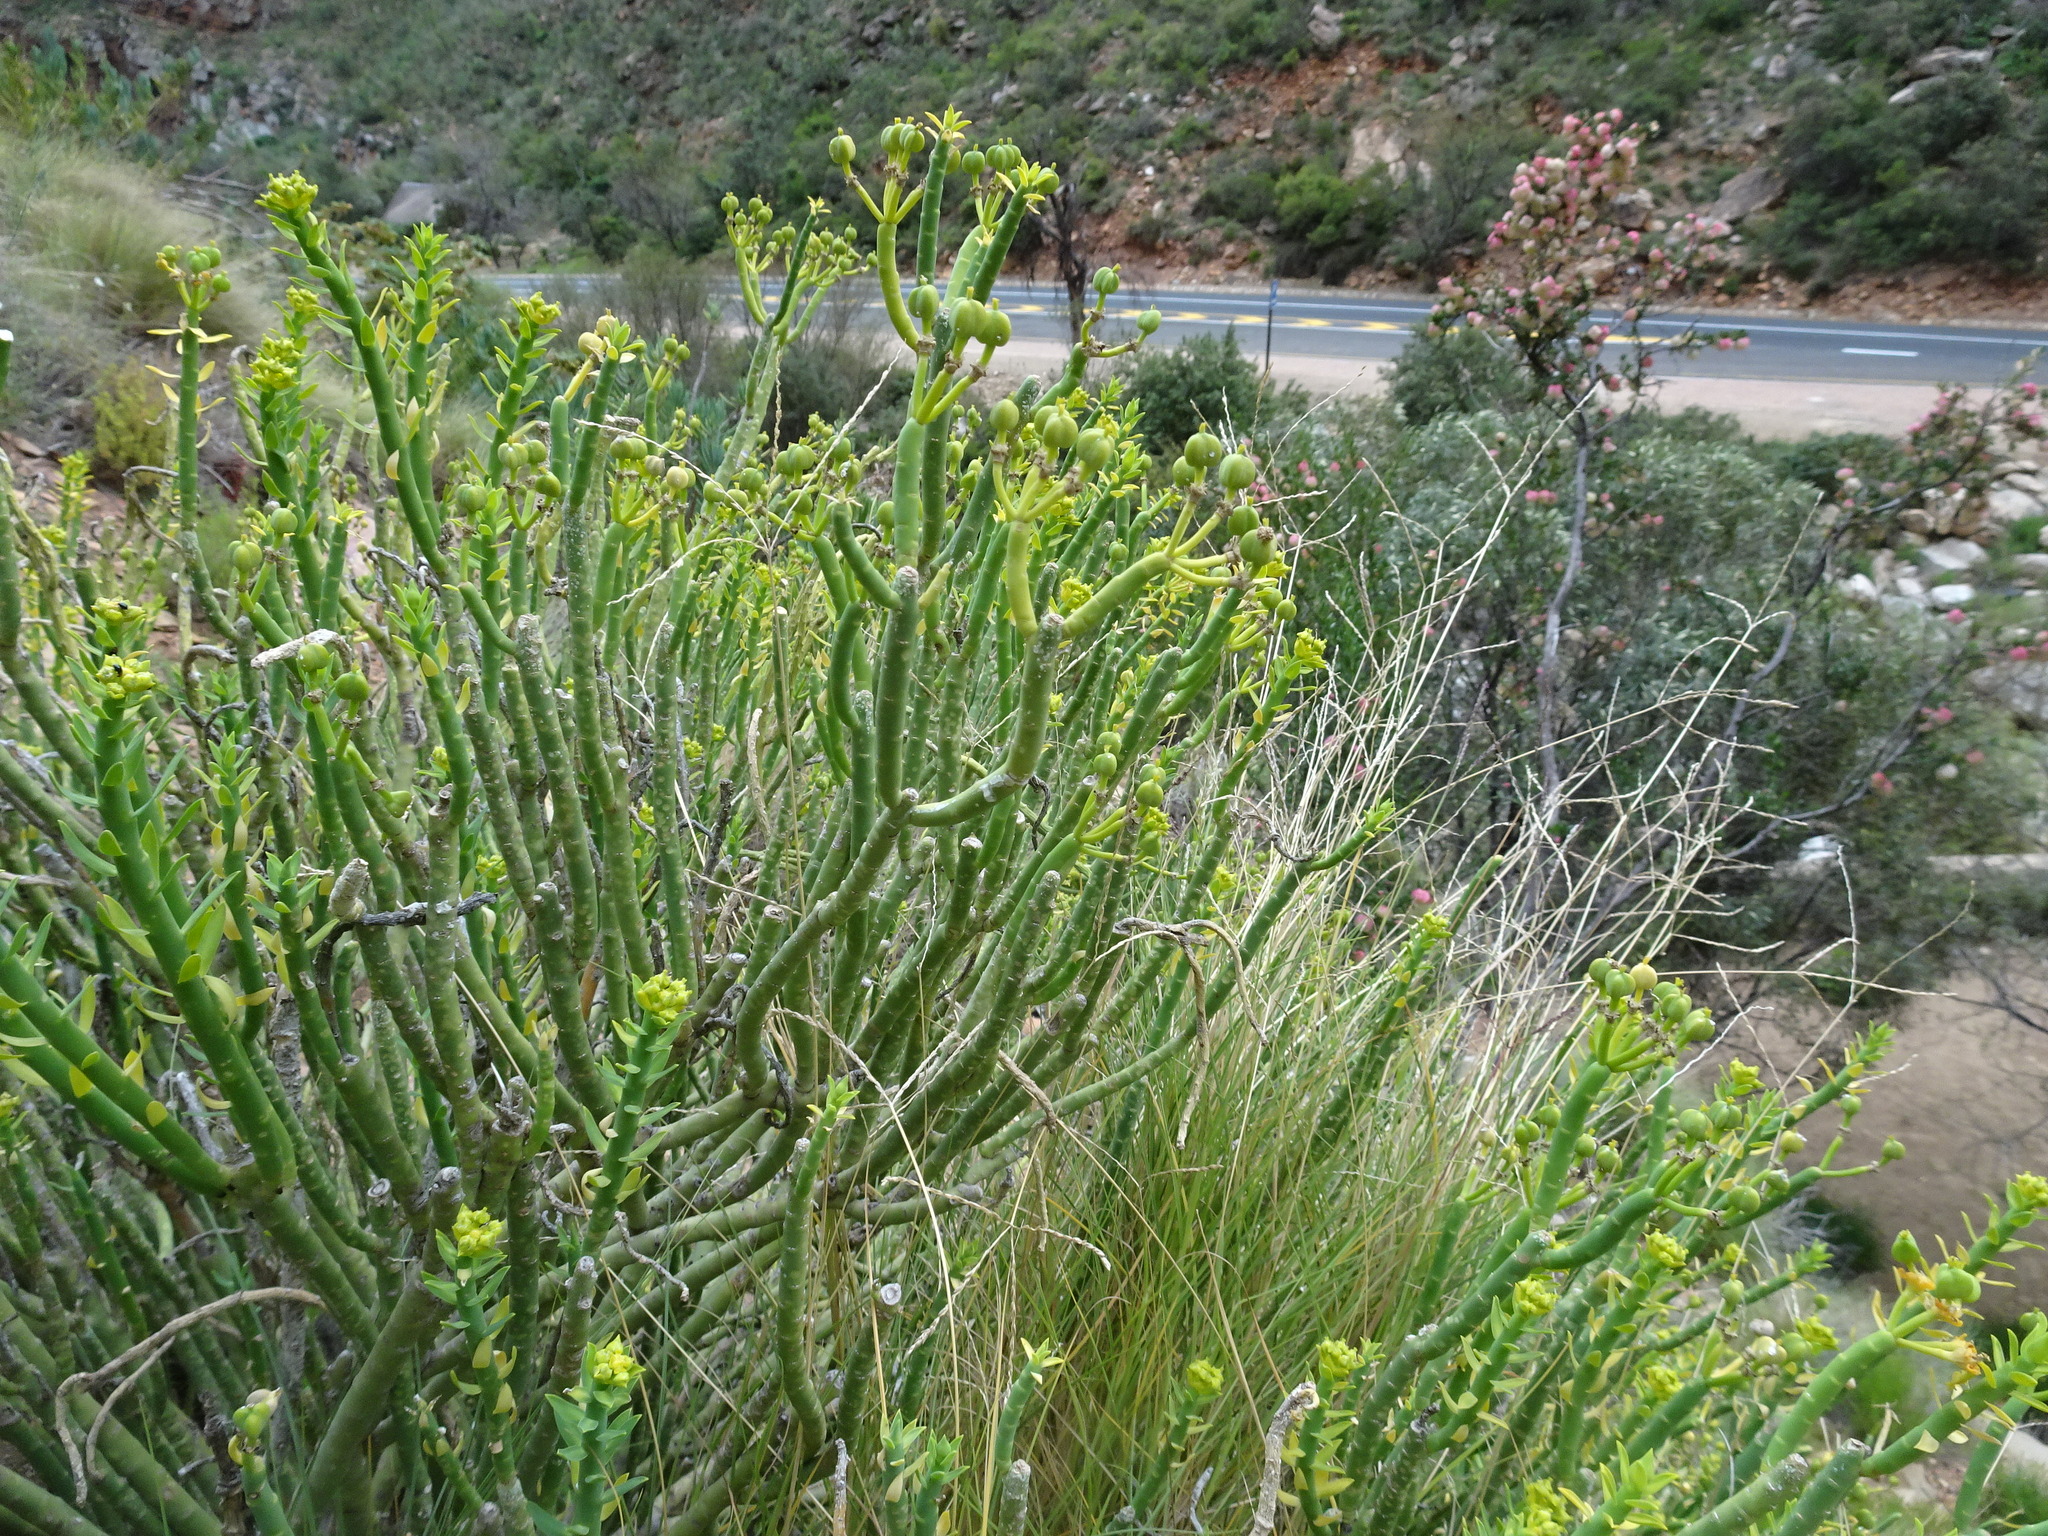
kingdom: Plantae
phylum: Tracheophyta
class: Magnoliopsida
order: Malpighiales
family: Euphorbiaceae
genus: Euphorbia
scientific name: Euphorbia mauritanica
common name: Jackal's-food
